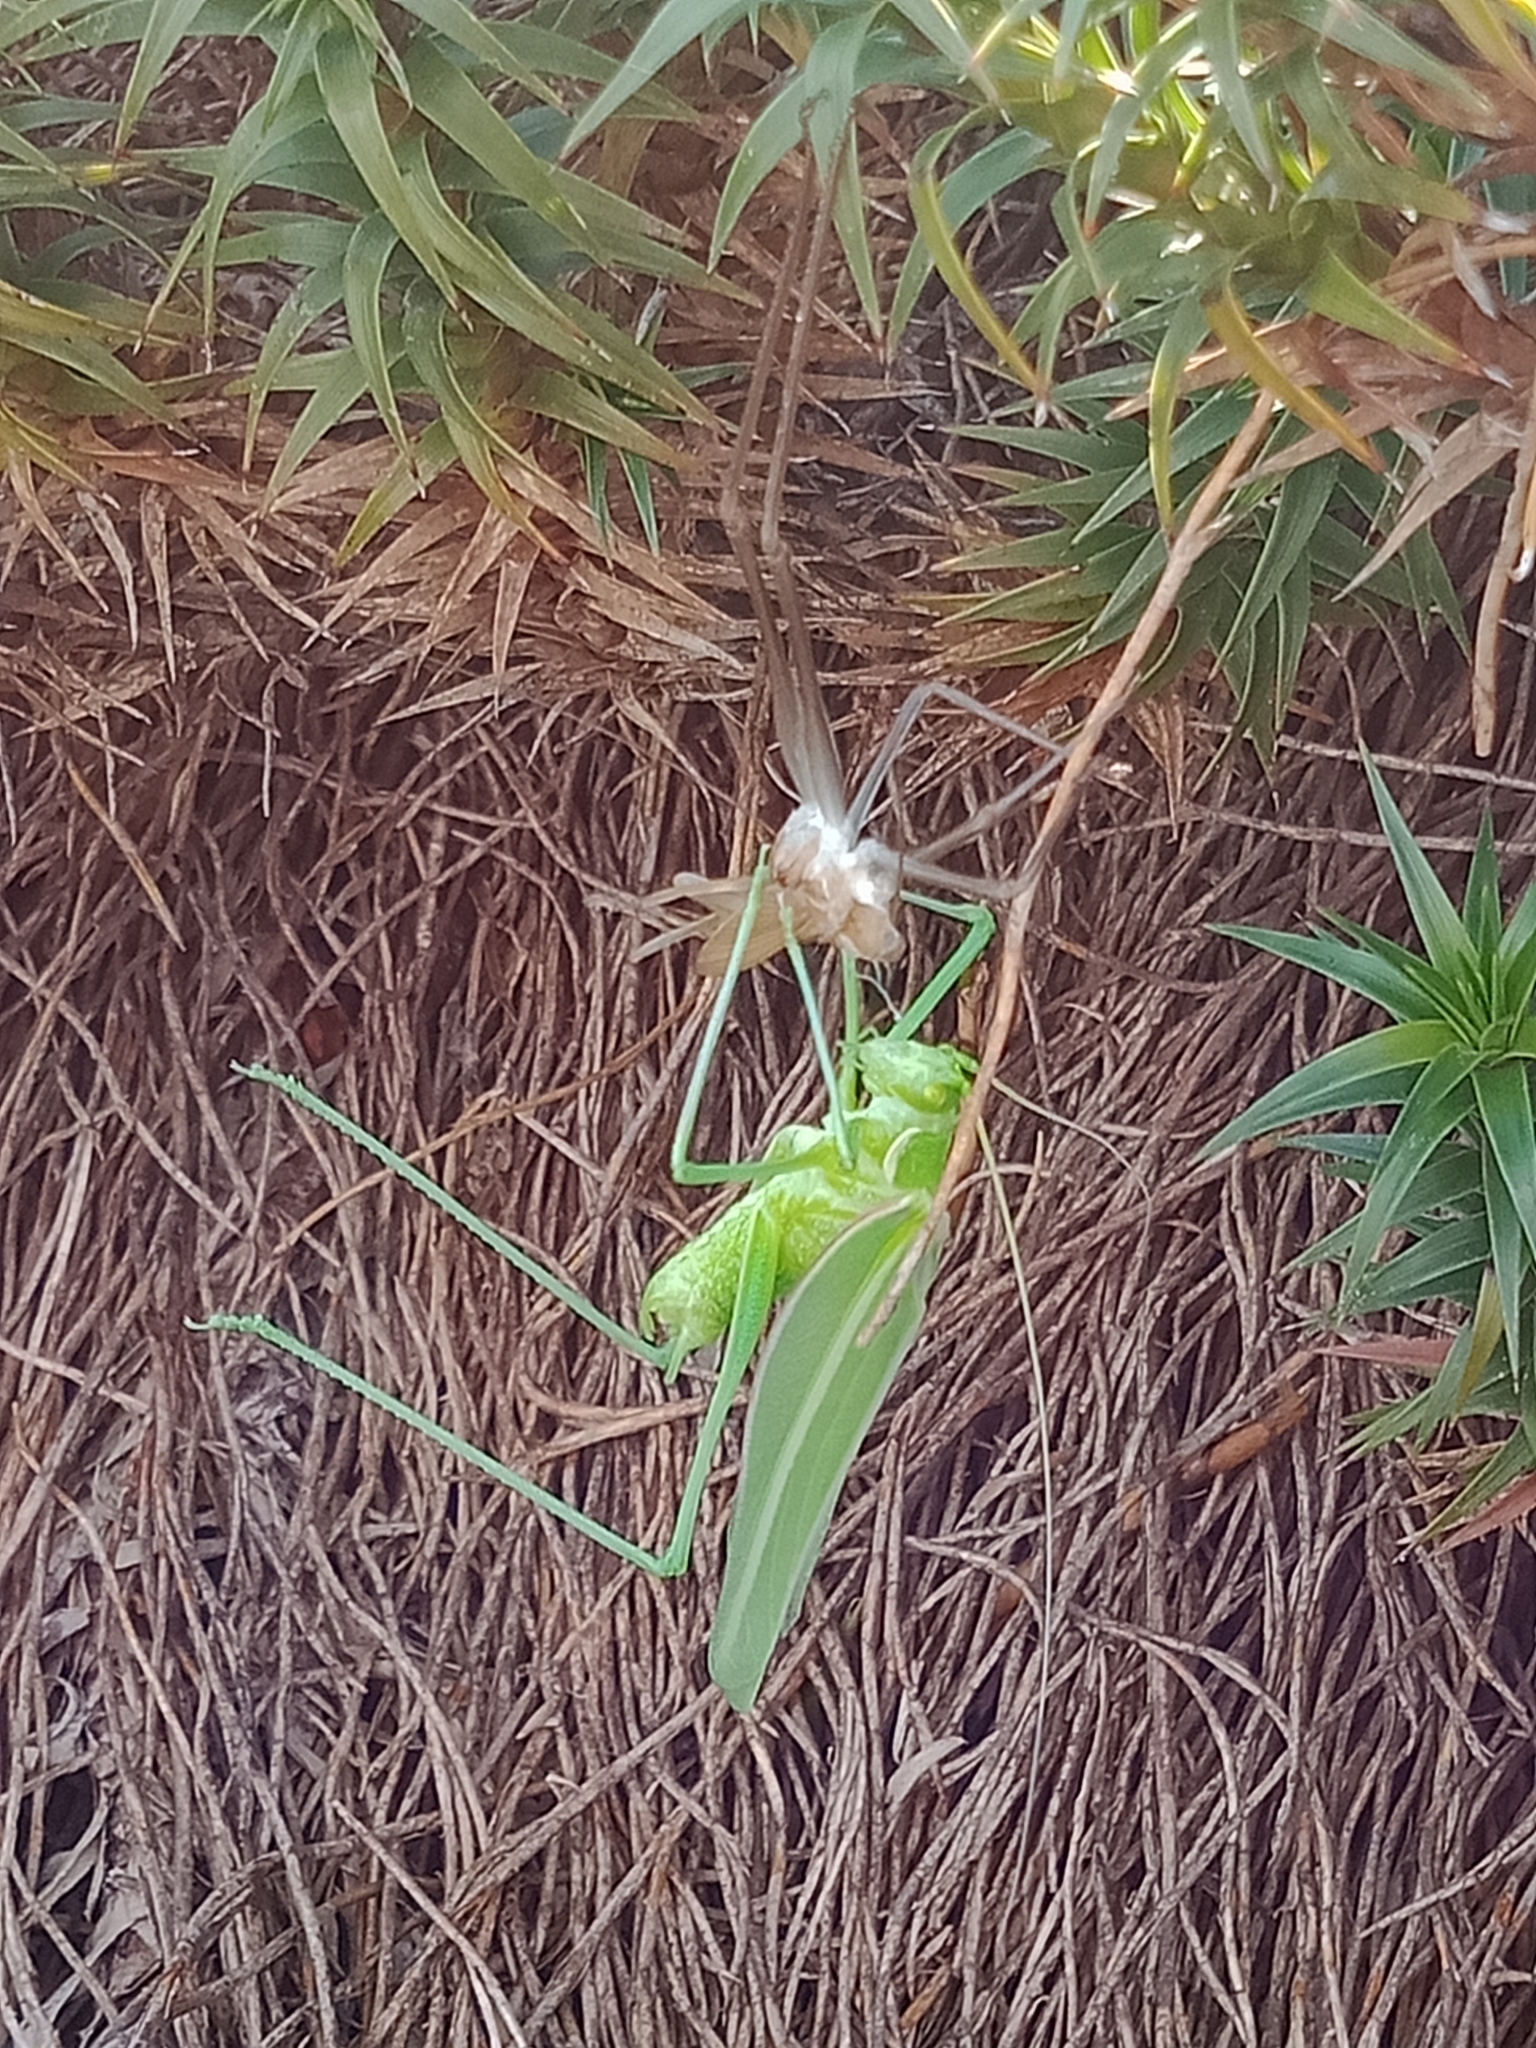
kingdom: Animalia
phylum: Arthropoda
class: Insecta
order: Orthoptera
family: Tettigoniidae
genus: Tinzeda
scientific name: Tinzeda albosignata
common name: Stout tinzeda
